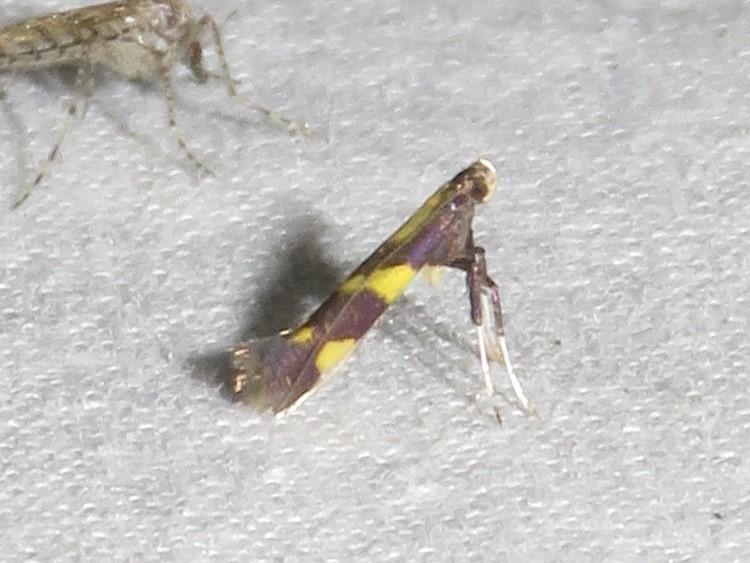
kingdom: Animalia
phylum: Arthropoda
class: Insecta
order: Lepidoptera
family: Gracillariidae
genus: Caloptilia
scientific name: Caloptilia vacciniella
